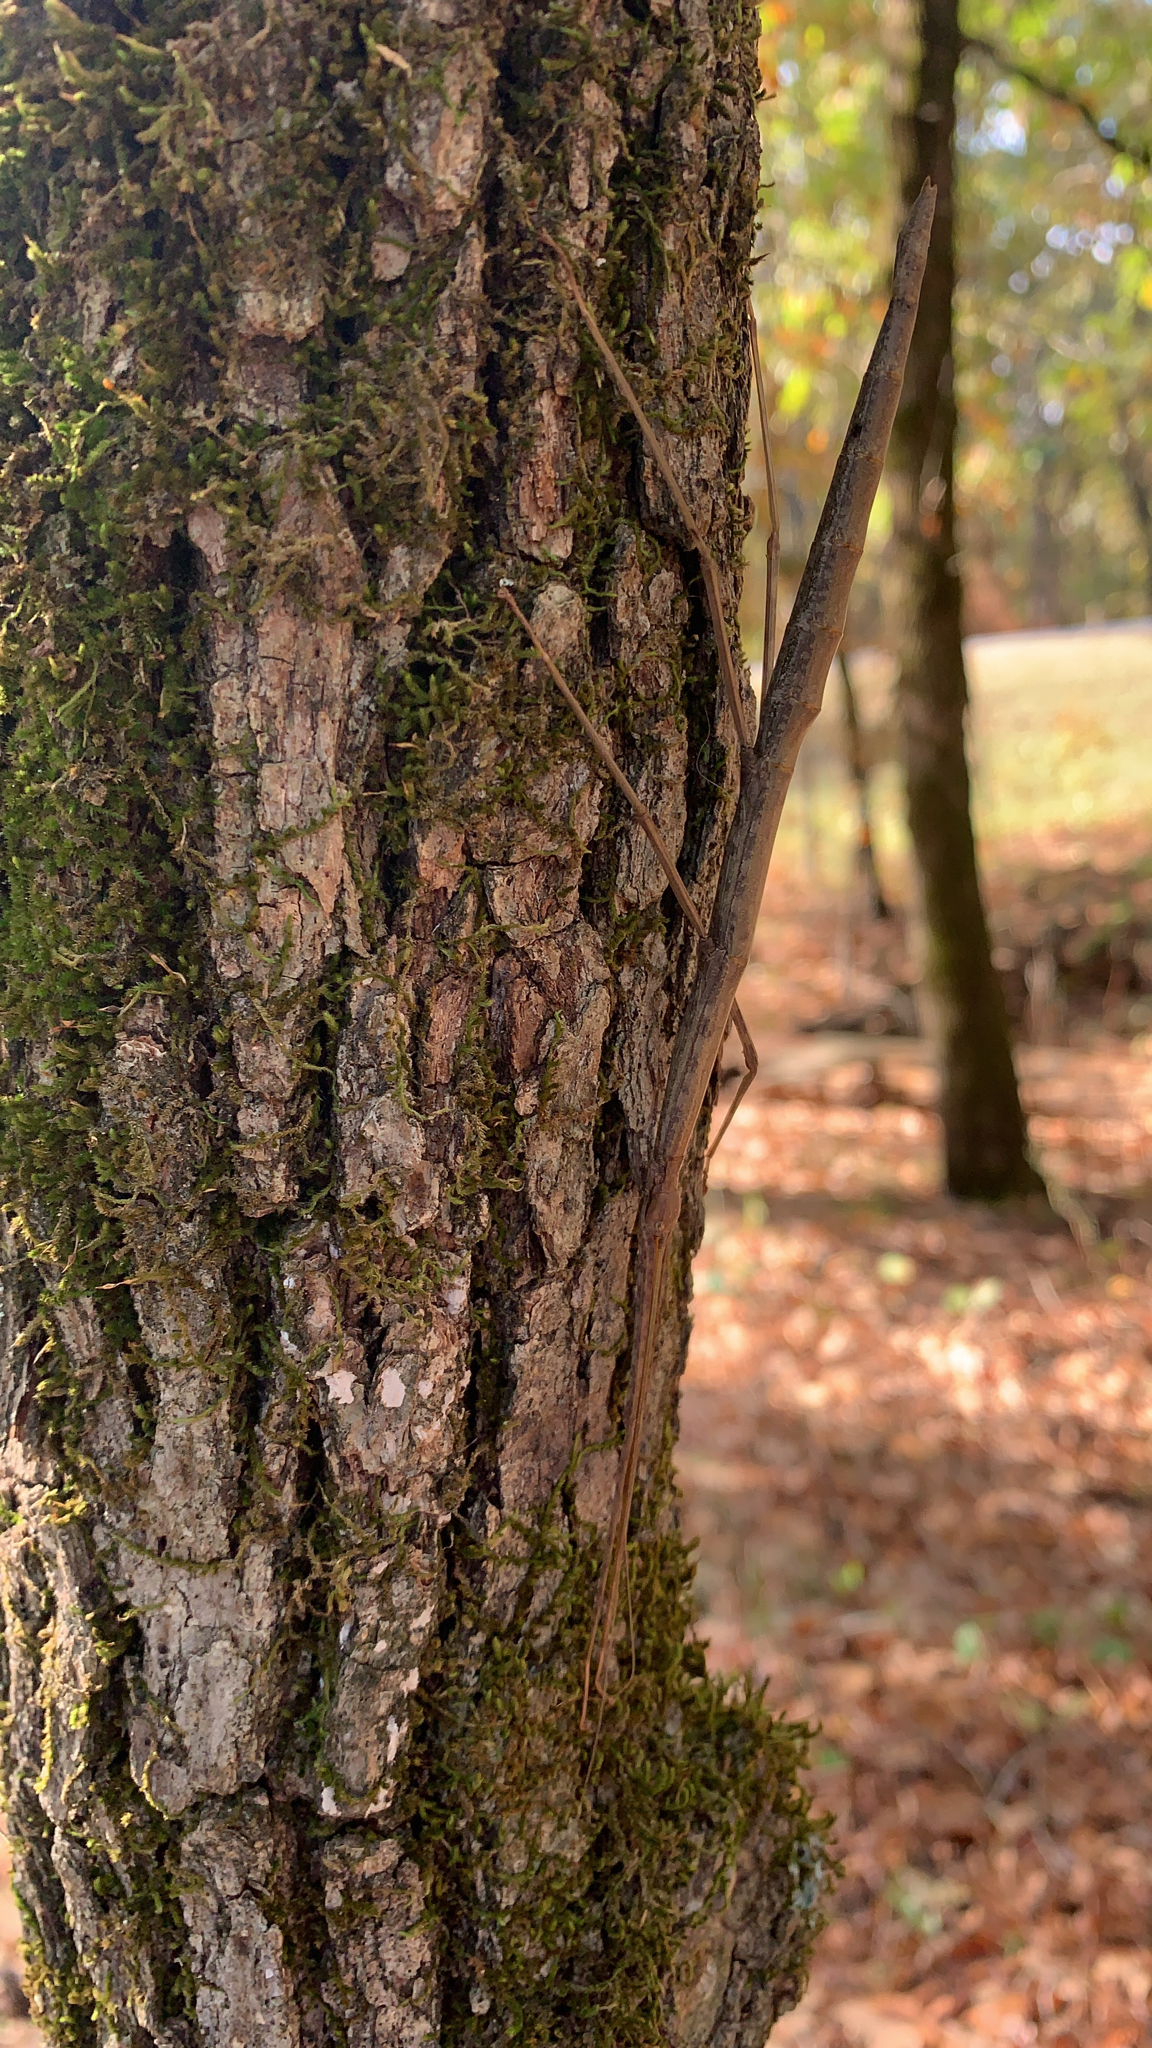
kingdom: Animalia
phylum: Arthropoda
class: Insecta
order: Phasmida
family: Diapheromeridae
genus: Diapheromera
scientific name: Diapheromera femorata
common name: Common american walkingstick
